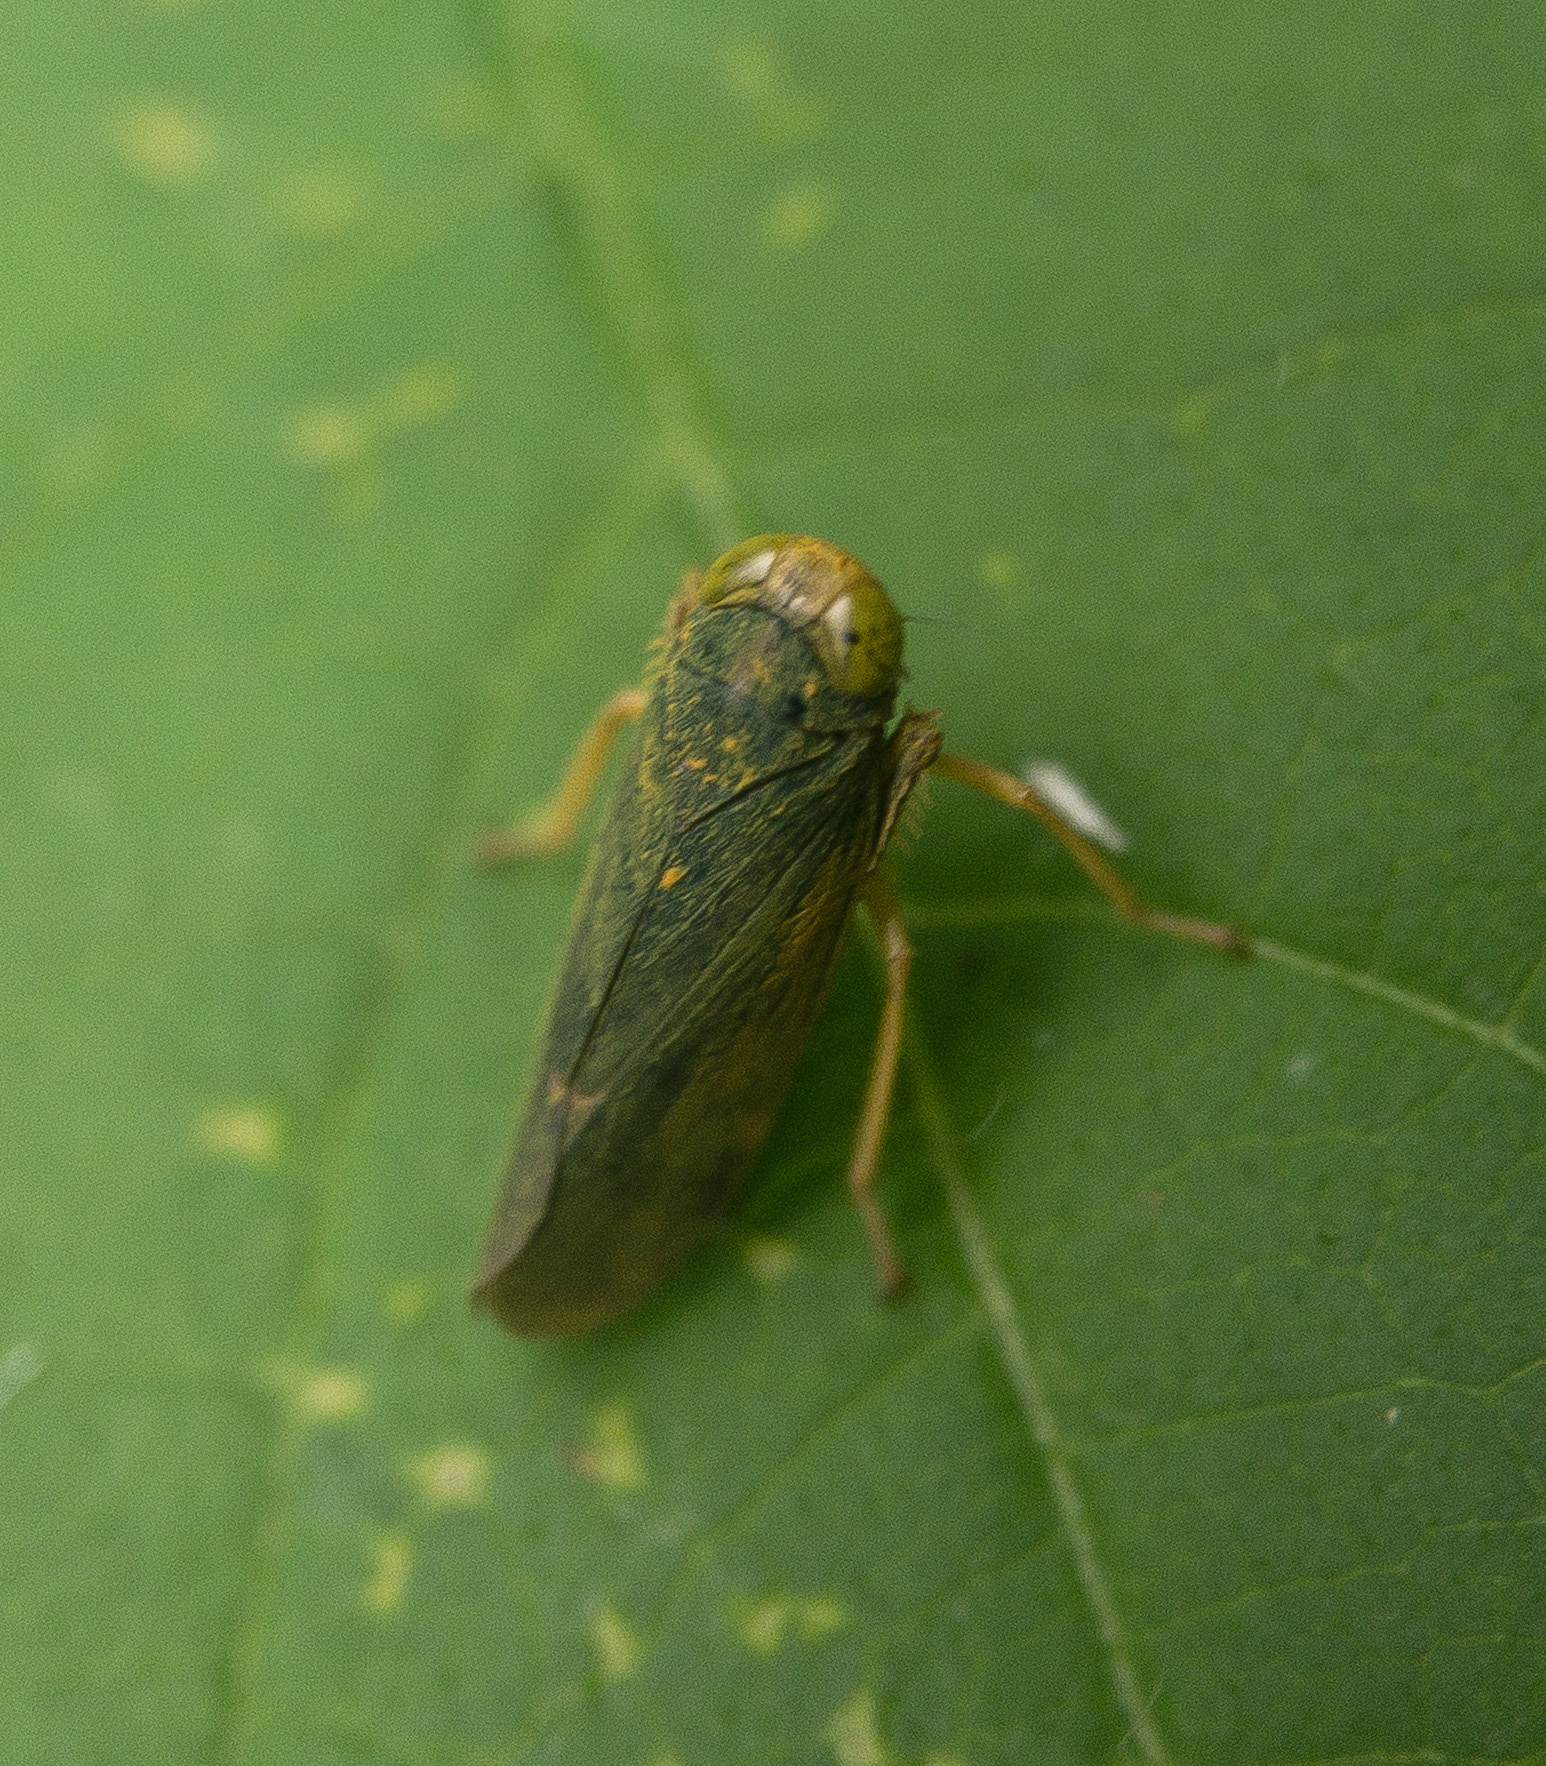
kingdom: Animalia
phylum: Arthropoda
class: Insecta
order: Hemiptera
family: Cicadellidae
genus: Jikradia
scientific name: Jikradia olitoria
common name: Coppery leafhopper
